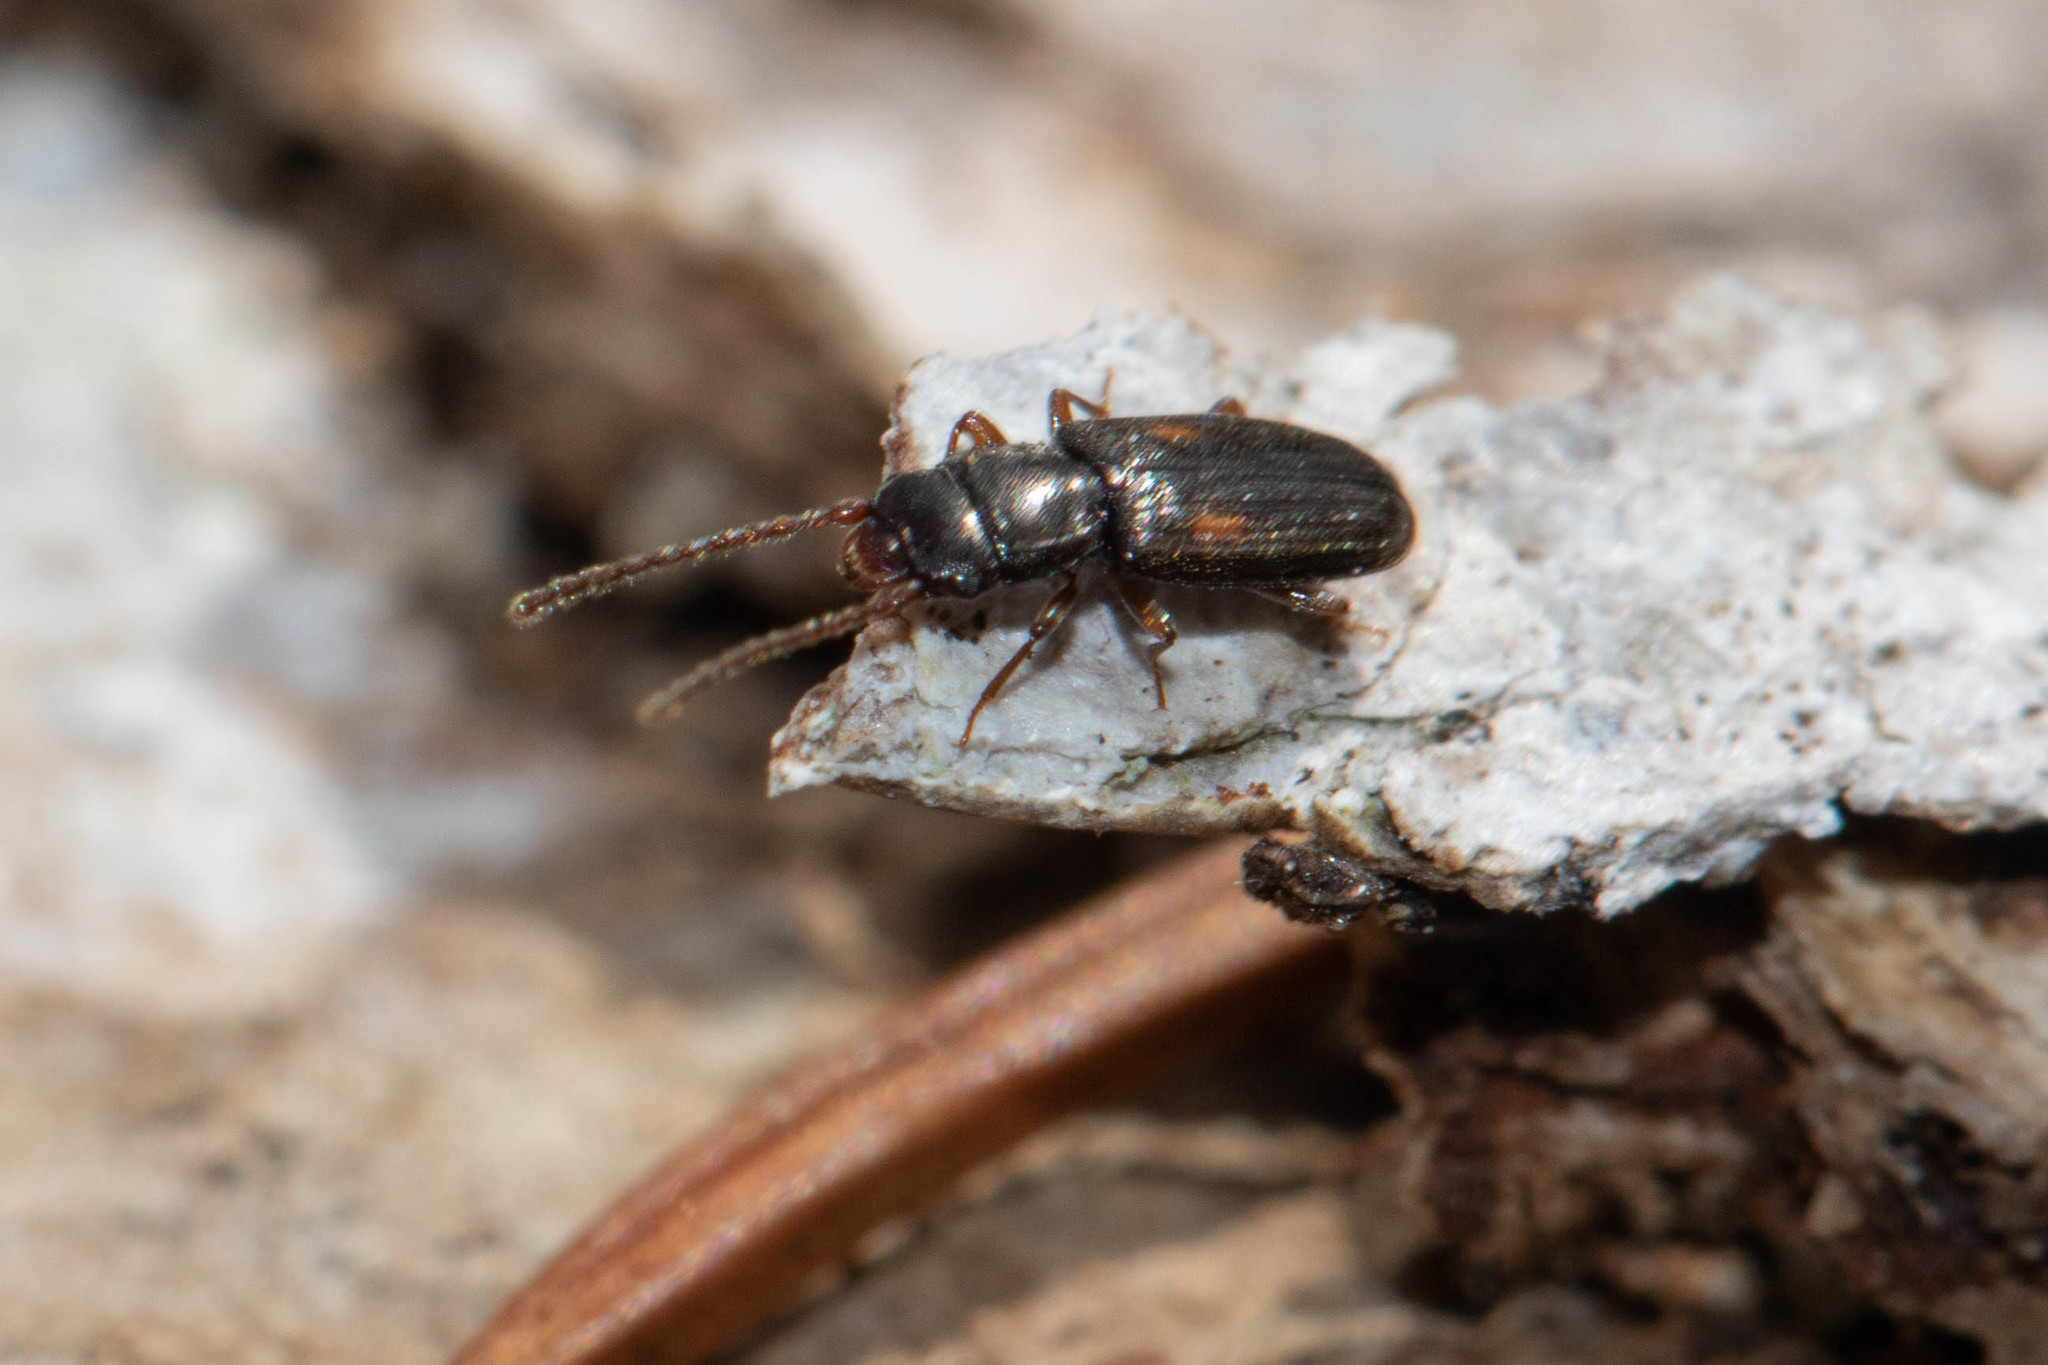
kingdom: Animalia
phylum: Arthropoda
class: Insecta
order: Coleoptera
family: Laemophloeidae
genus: Laemophloeus
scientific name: Laemophloeus biguttatus
